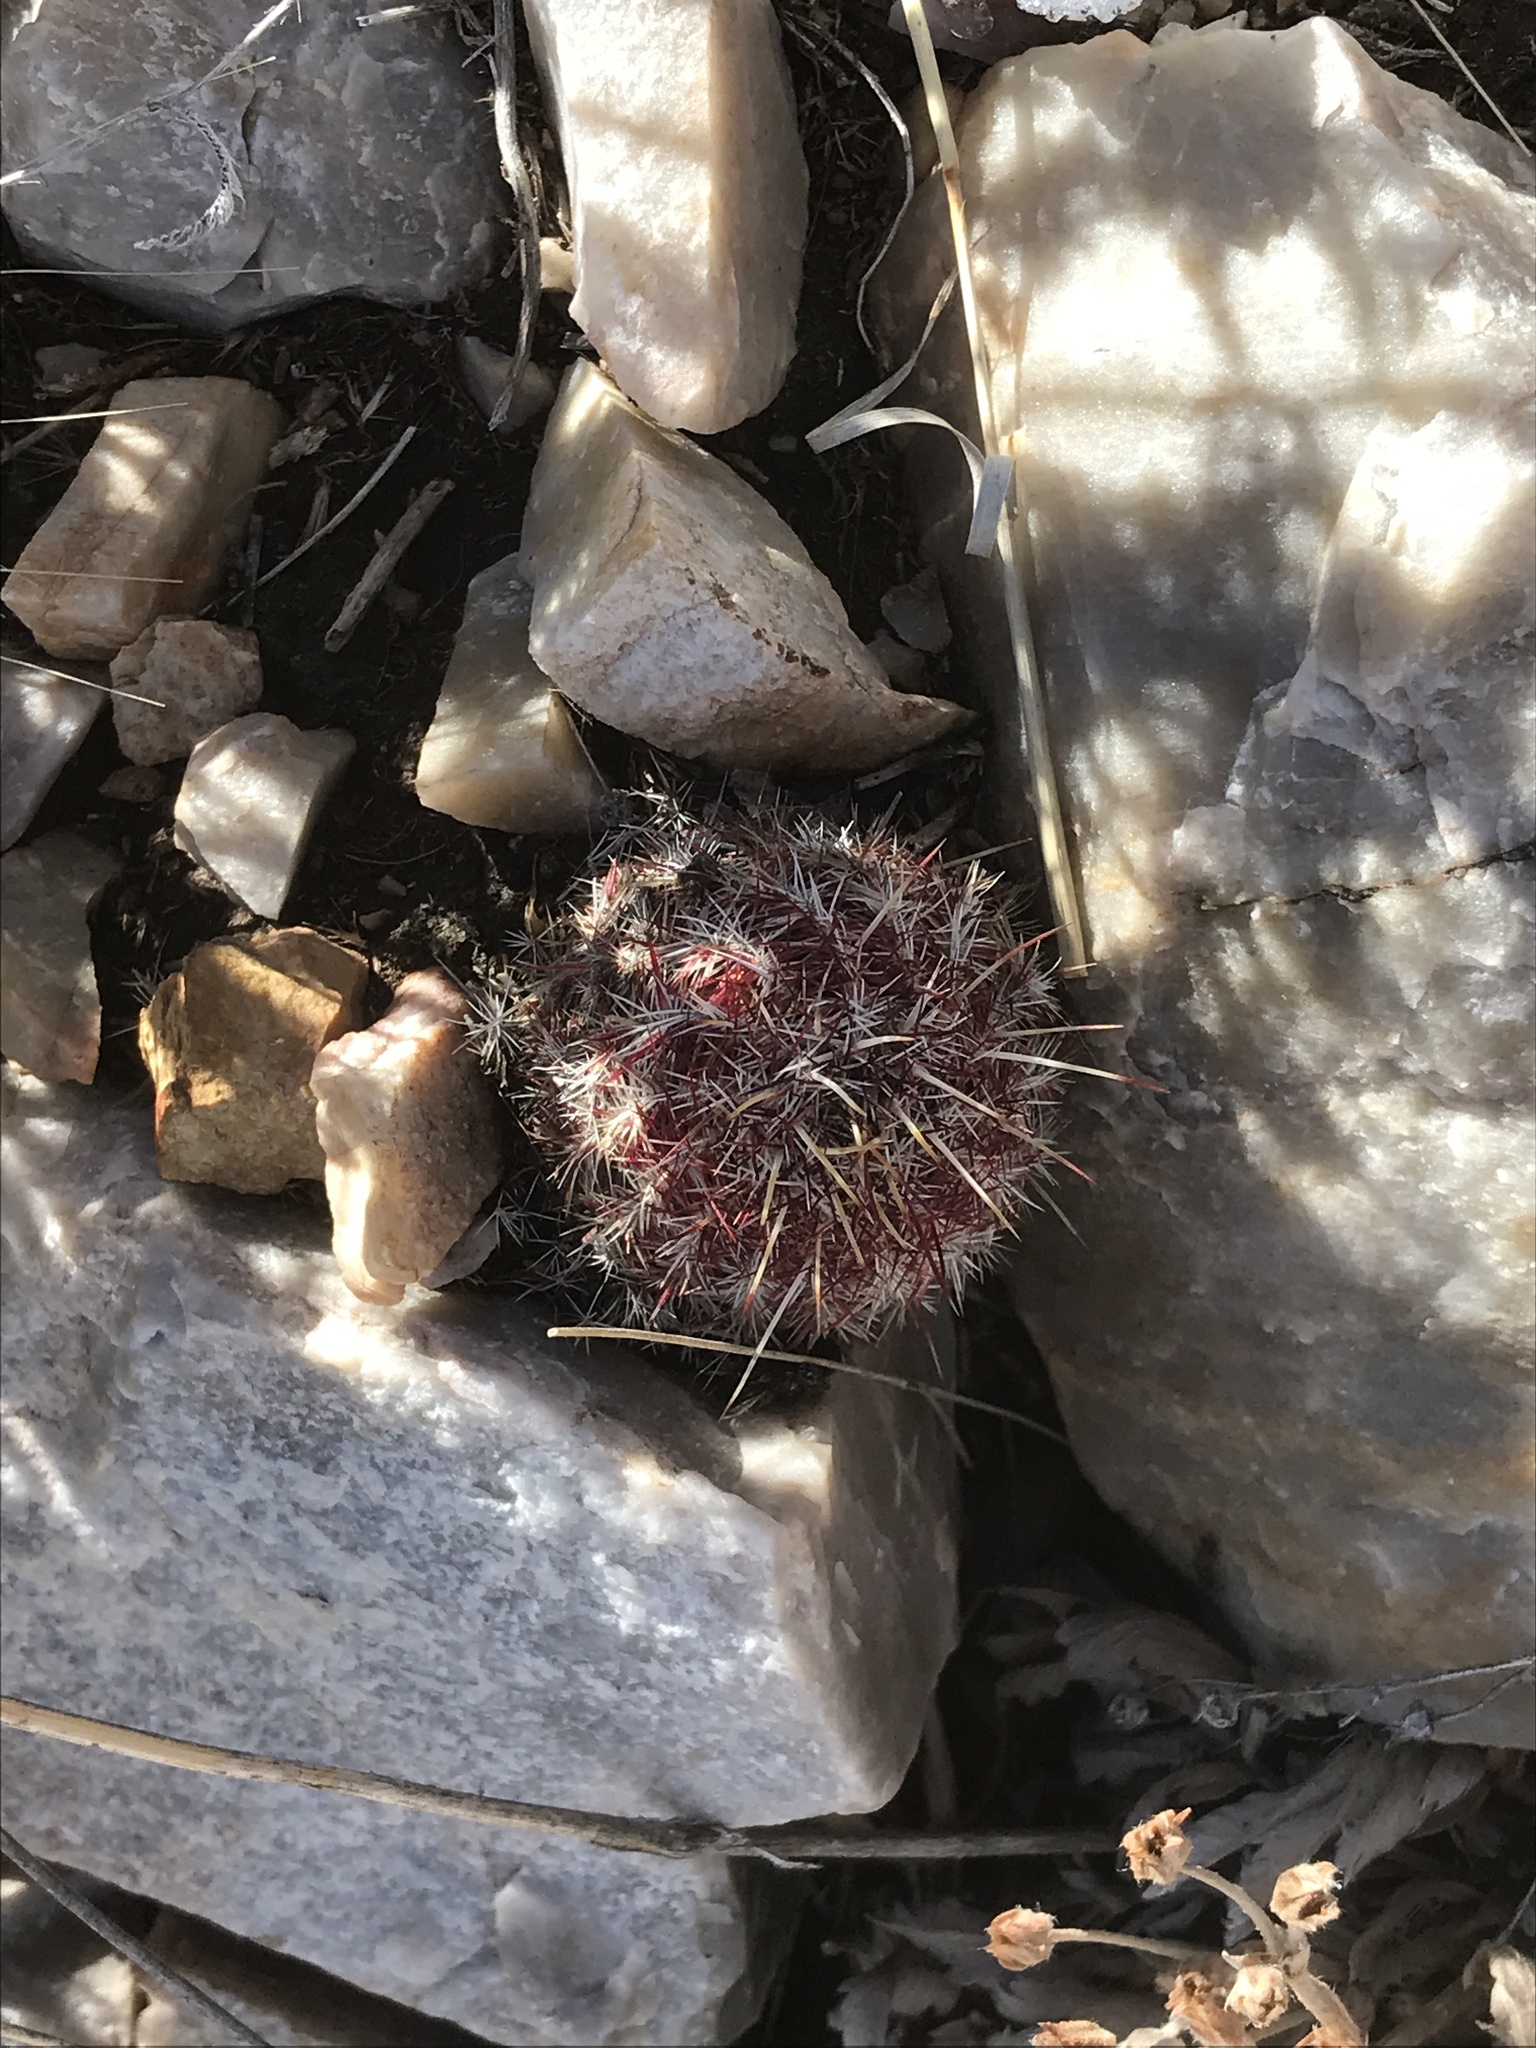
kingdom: Plantae
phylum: Tracheophyta
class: Magnoliopsida
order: Caryophyllales
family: Cactaceae
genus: Echinocereus
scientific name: Echinocereus viridiflorus
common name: Nylon hedgehog cactus
